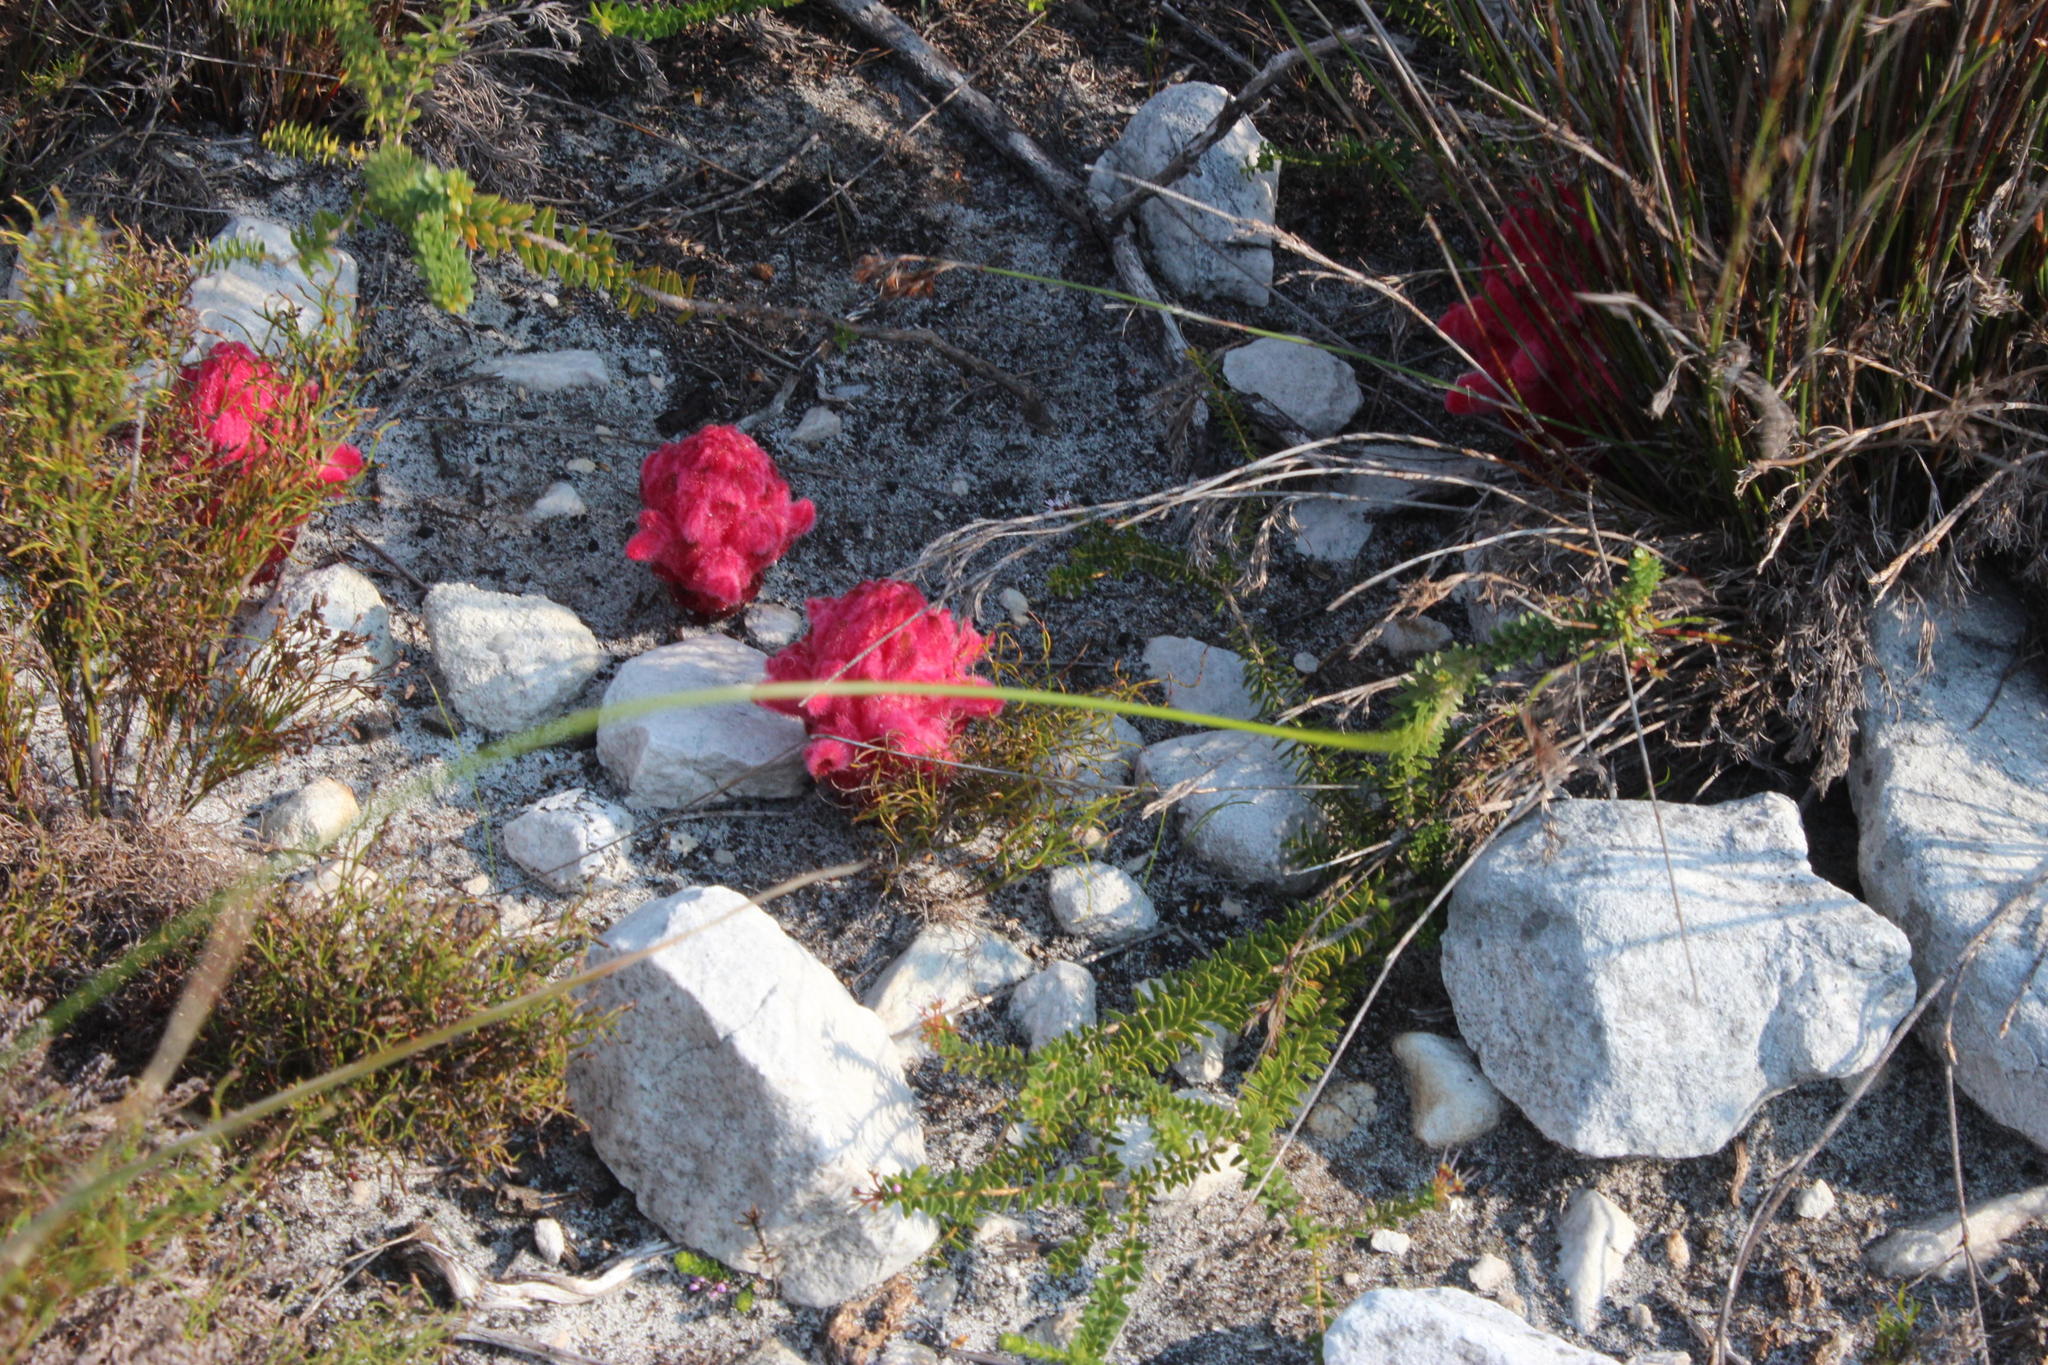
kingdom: Plantae
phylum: Tracheophyta
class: Magnoliopsida
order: Lamiales
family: Orobanchaceae
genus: Hyobanche
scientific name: Hyobanche sanguinea
